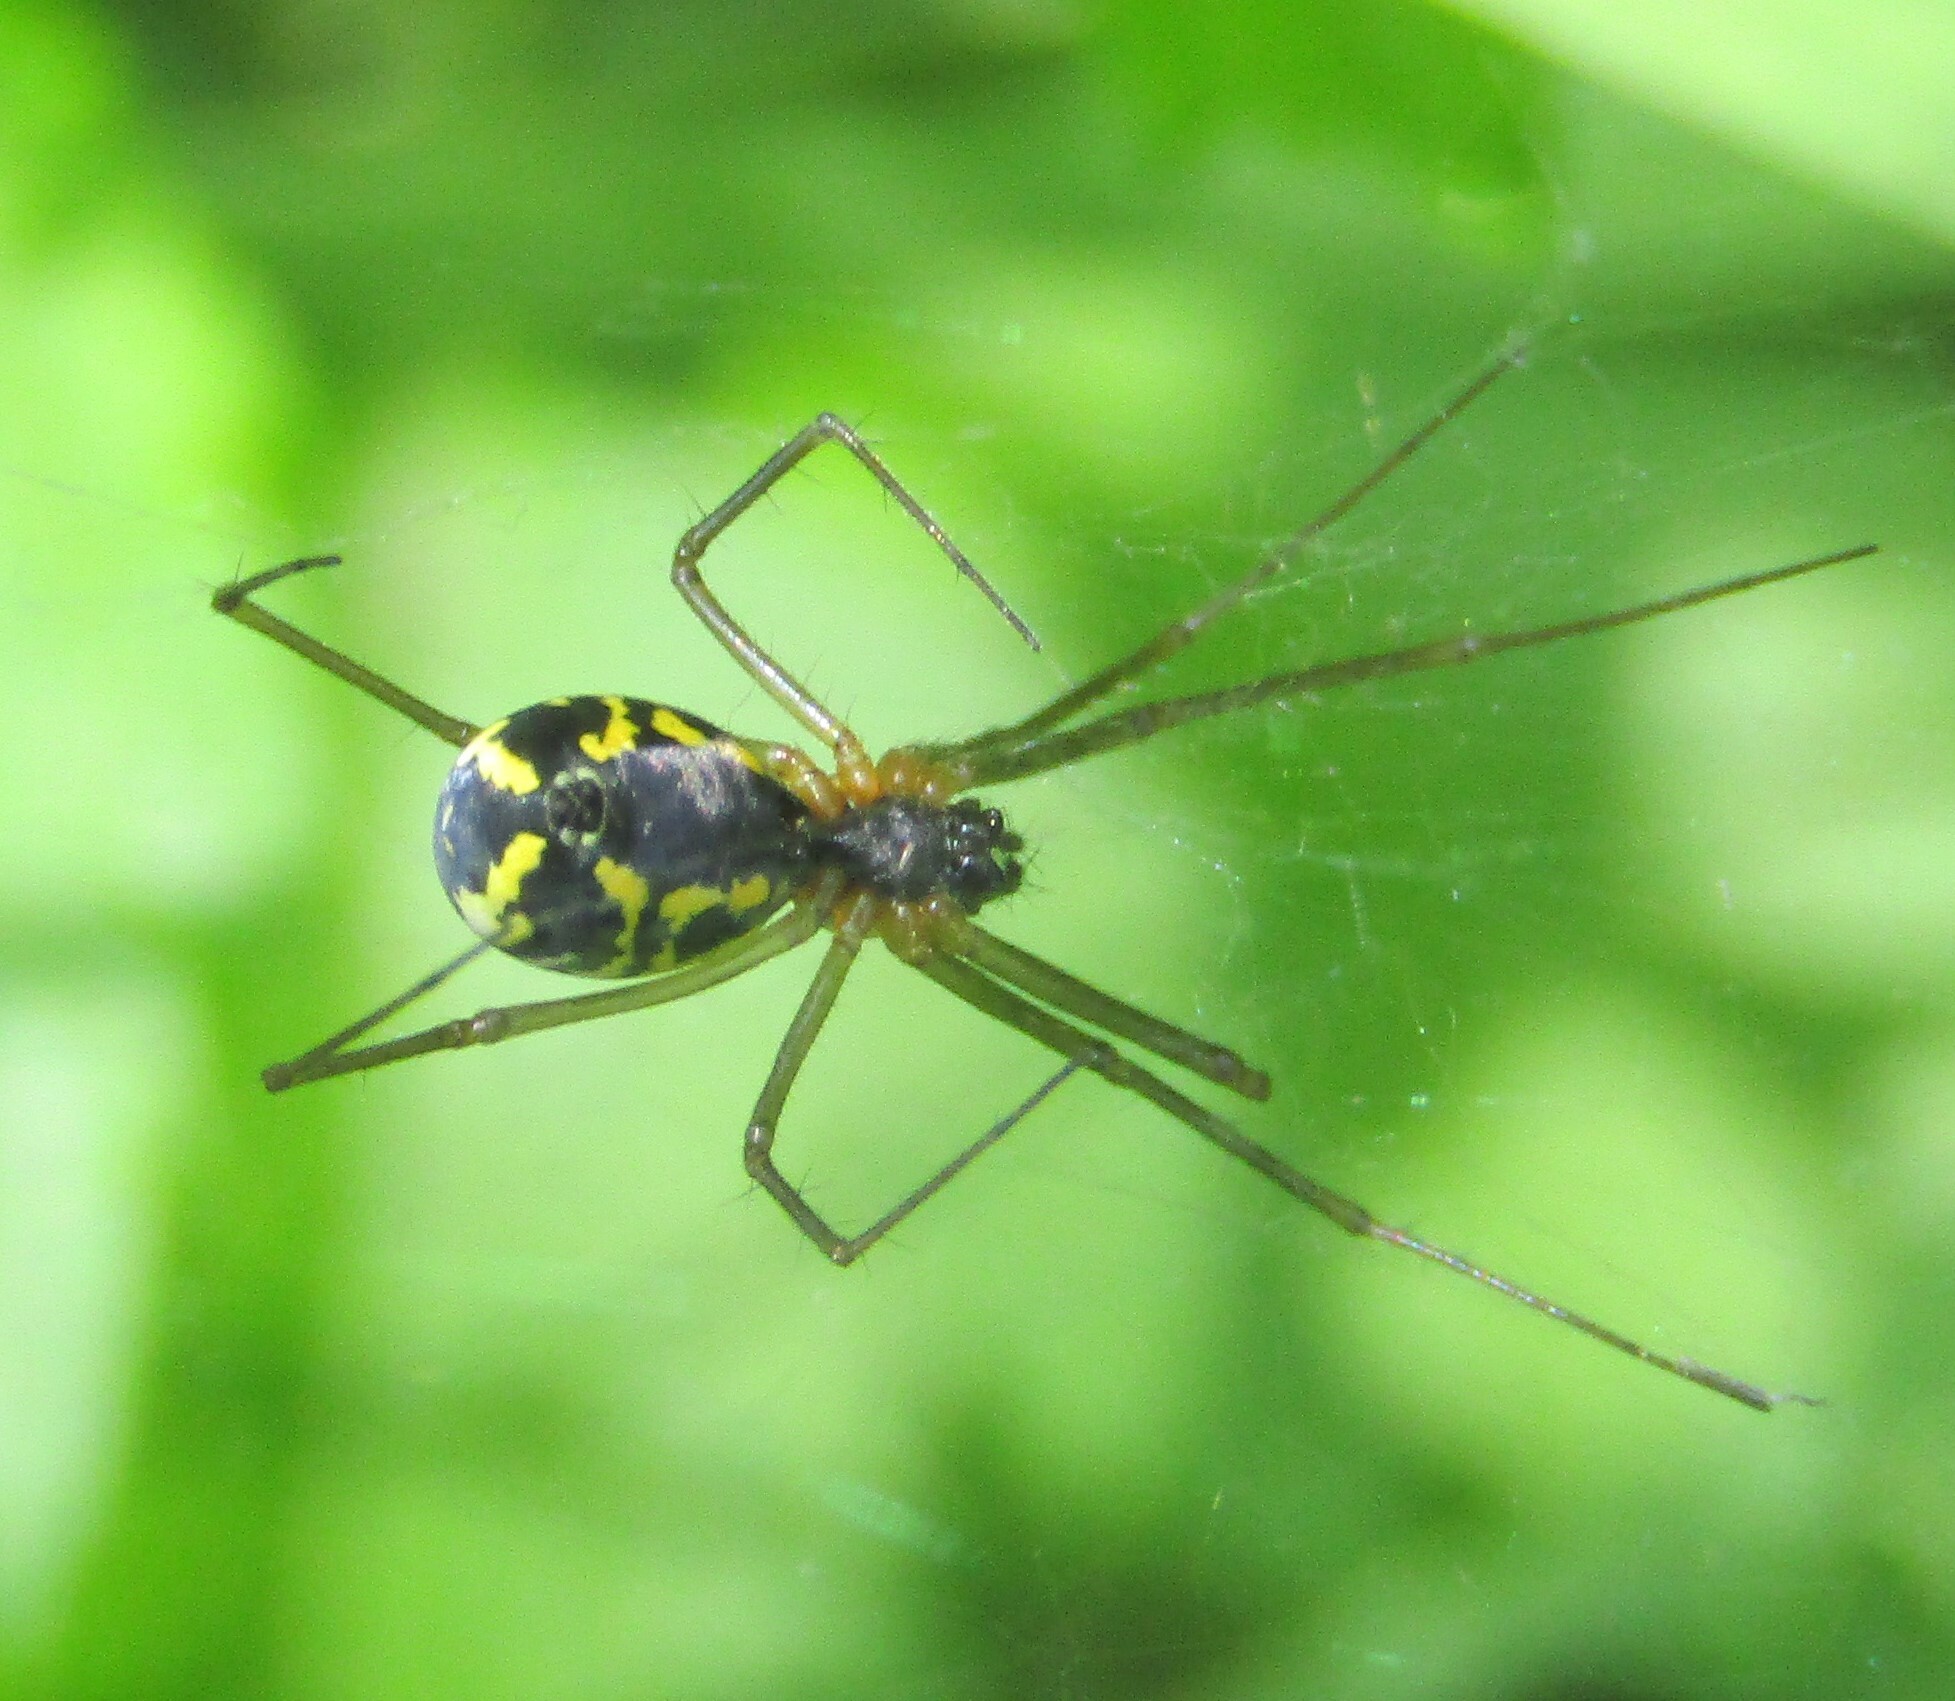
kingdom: Animalia
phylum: Arthropoda
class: Arachnida
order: Araneae
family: Linyphiidae
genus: Neriene
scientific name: Neriene radiata
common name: Filmy dome spider
